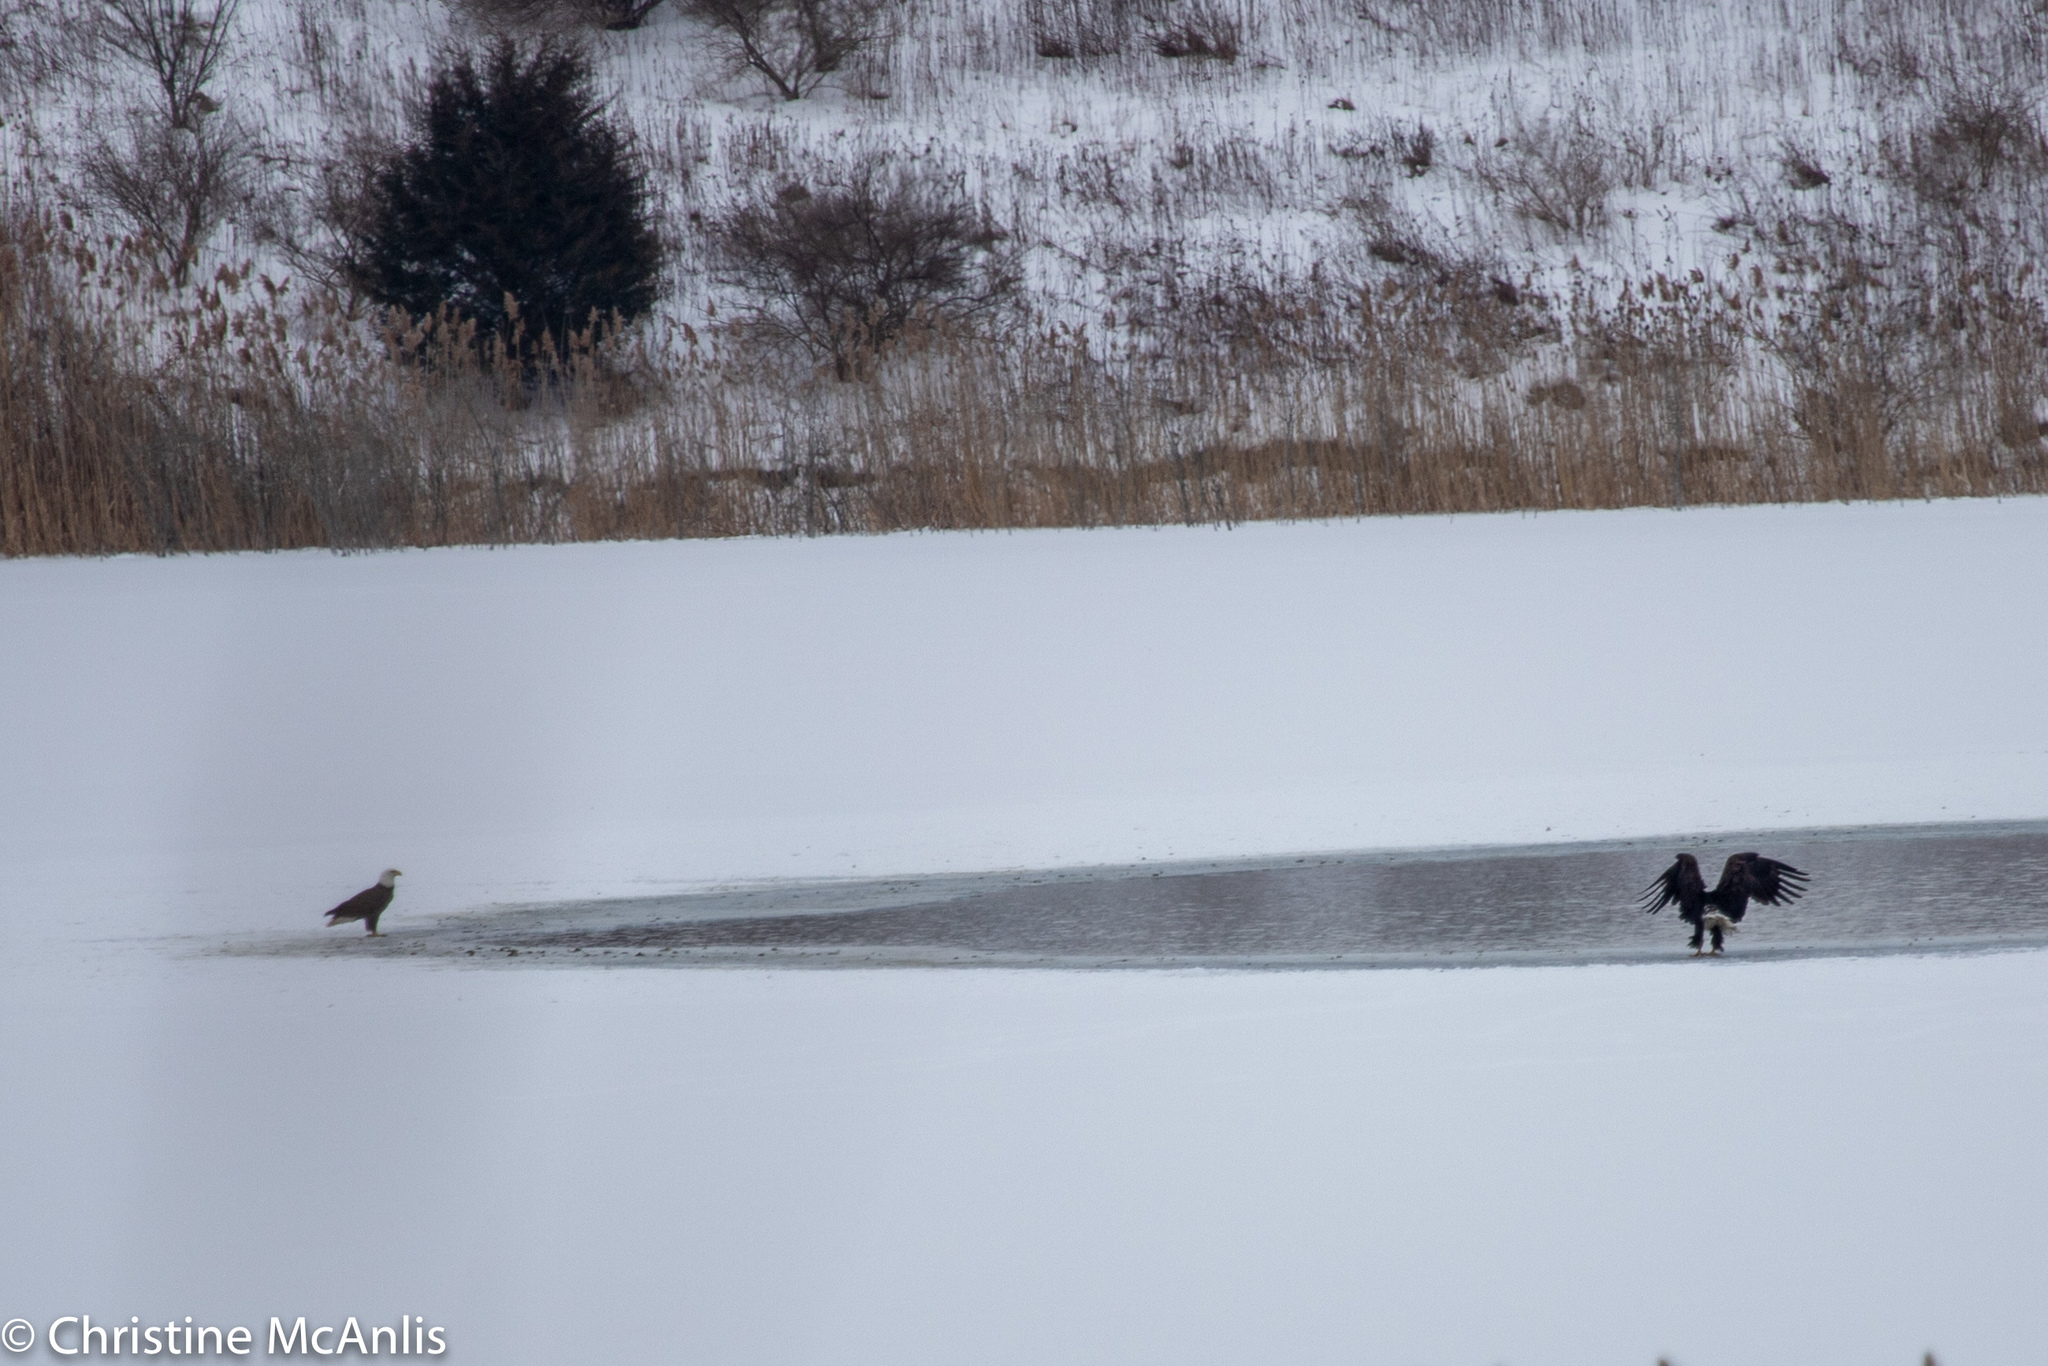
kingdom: Animalia
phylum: Chordata
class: Aves
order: Accipitriformes
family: Accipitridae
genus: Haliaeetus
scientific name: Haliaeetus leucocephalus
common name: Bald eagle
